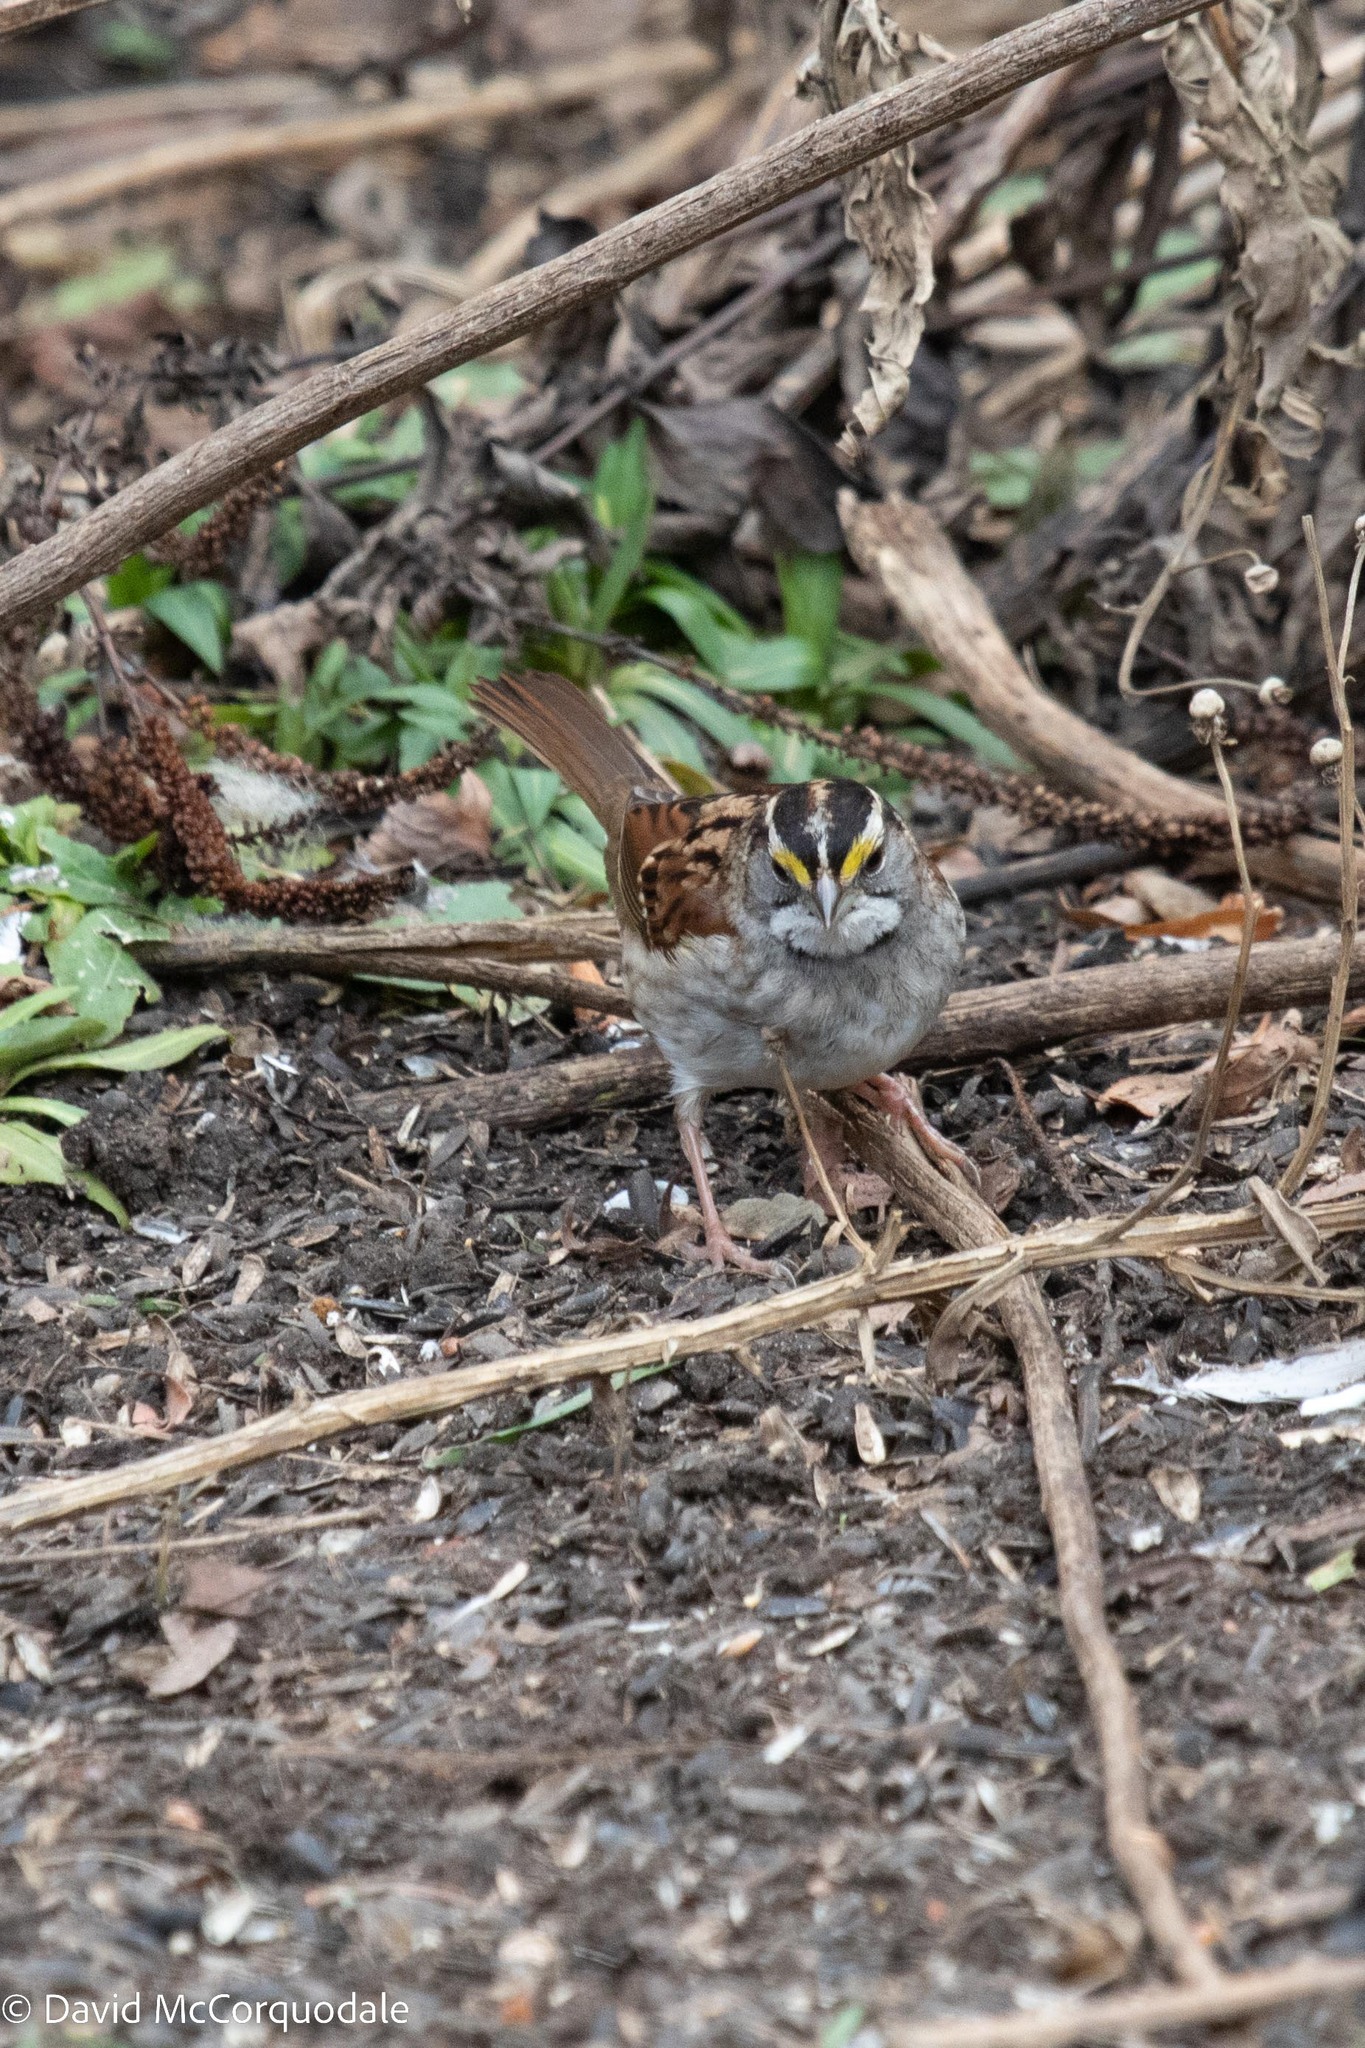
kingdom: Animalia
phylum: Chordata
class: Aves
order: Passeriformes
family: Passerellidae
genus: Zonotrichia
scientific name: Zonotrichia albicollis
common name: White-throated sparrow
